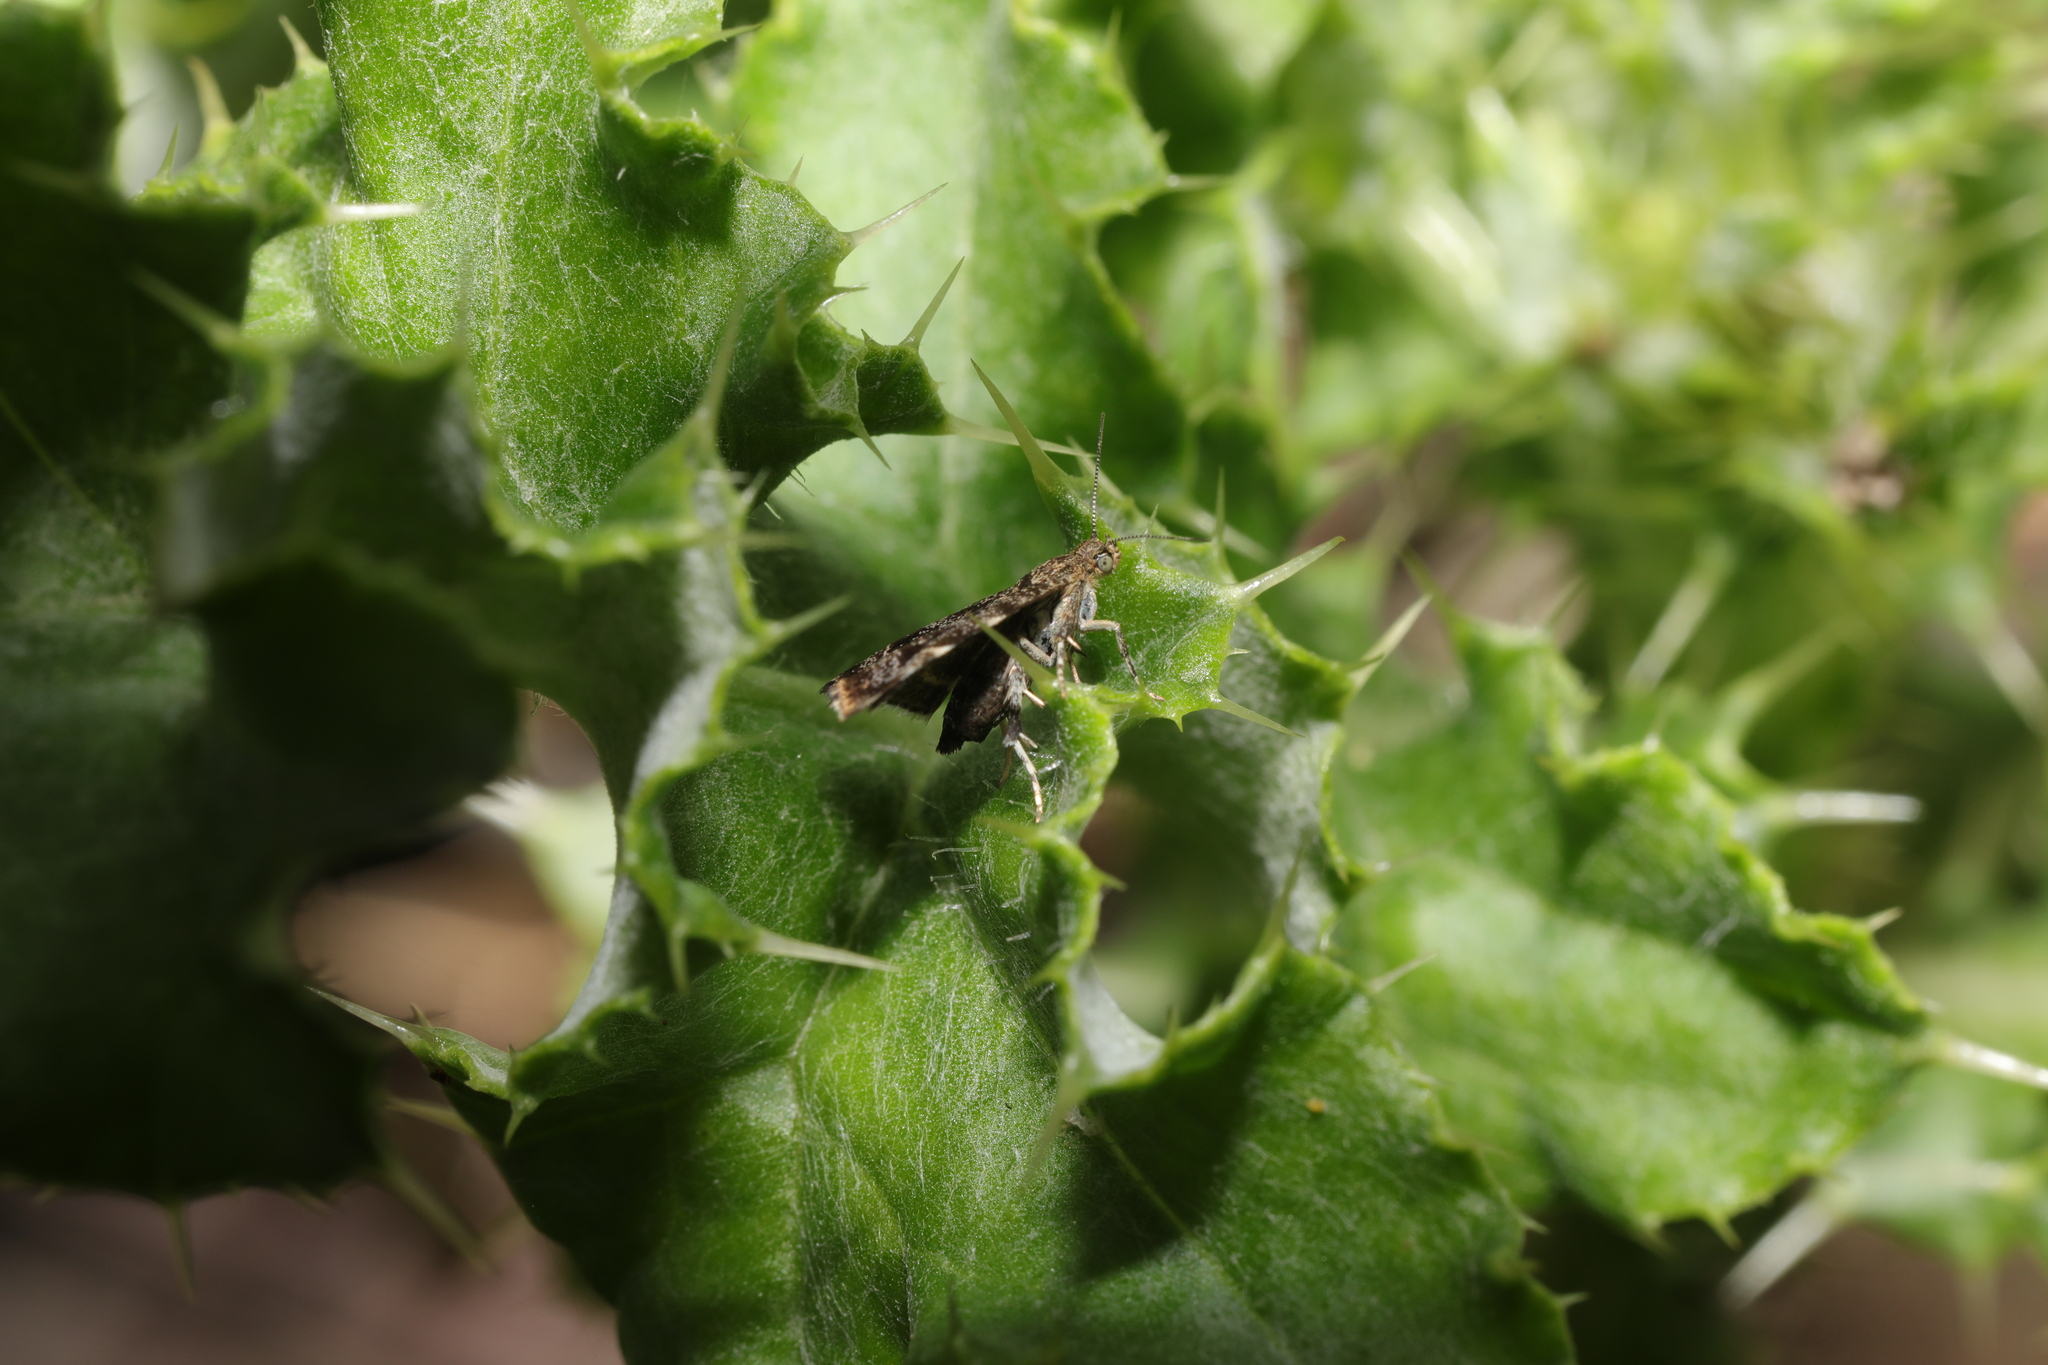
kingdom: Animalia
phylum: Arthropoda
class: Insecta
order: Lepidoptera
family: Choreutidae
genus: Anthophila
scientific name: Anthophila fabriciana
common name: Nettle-tap
